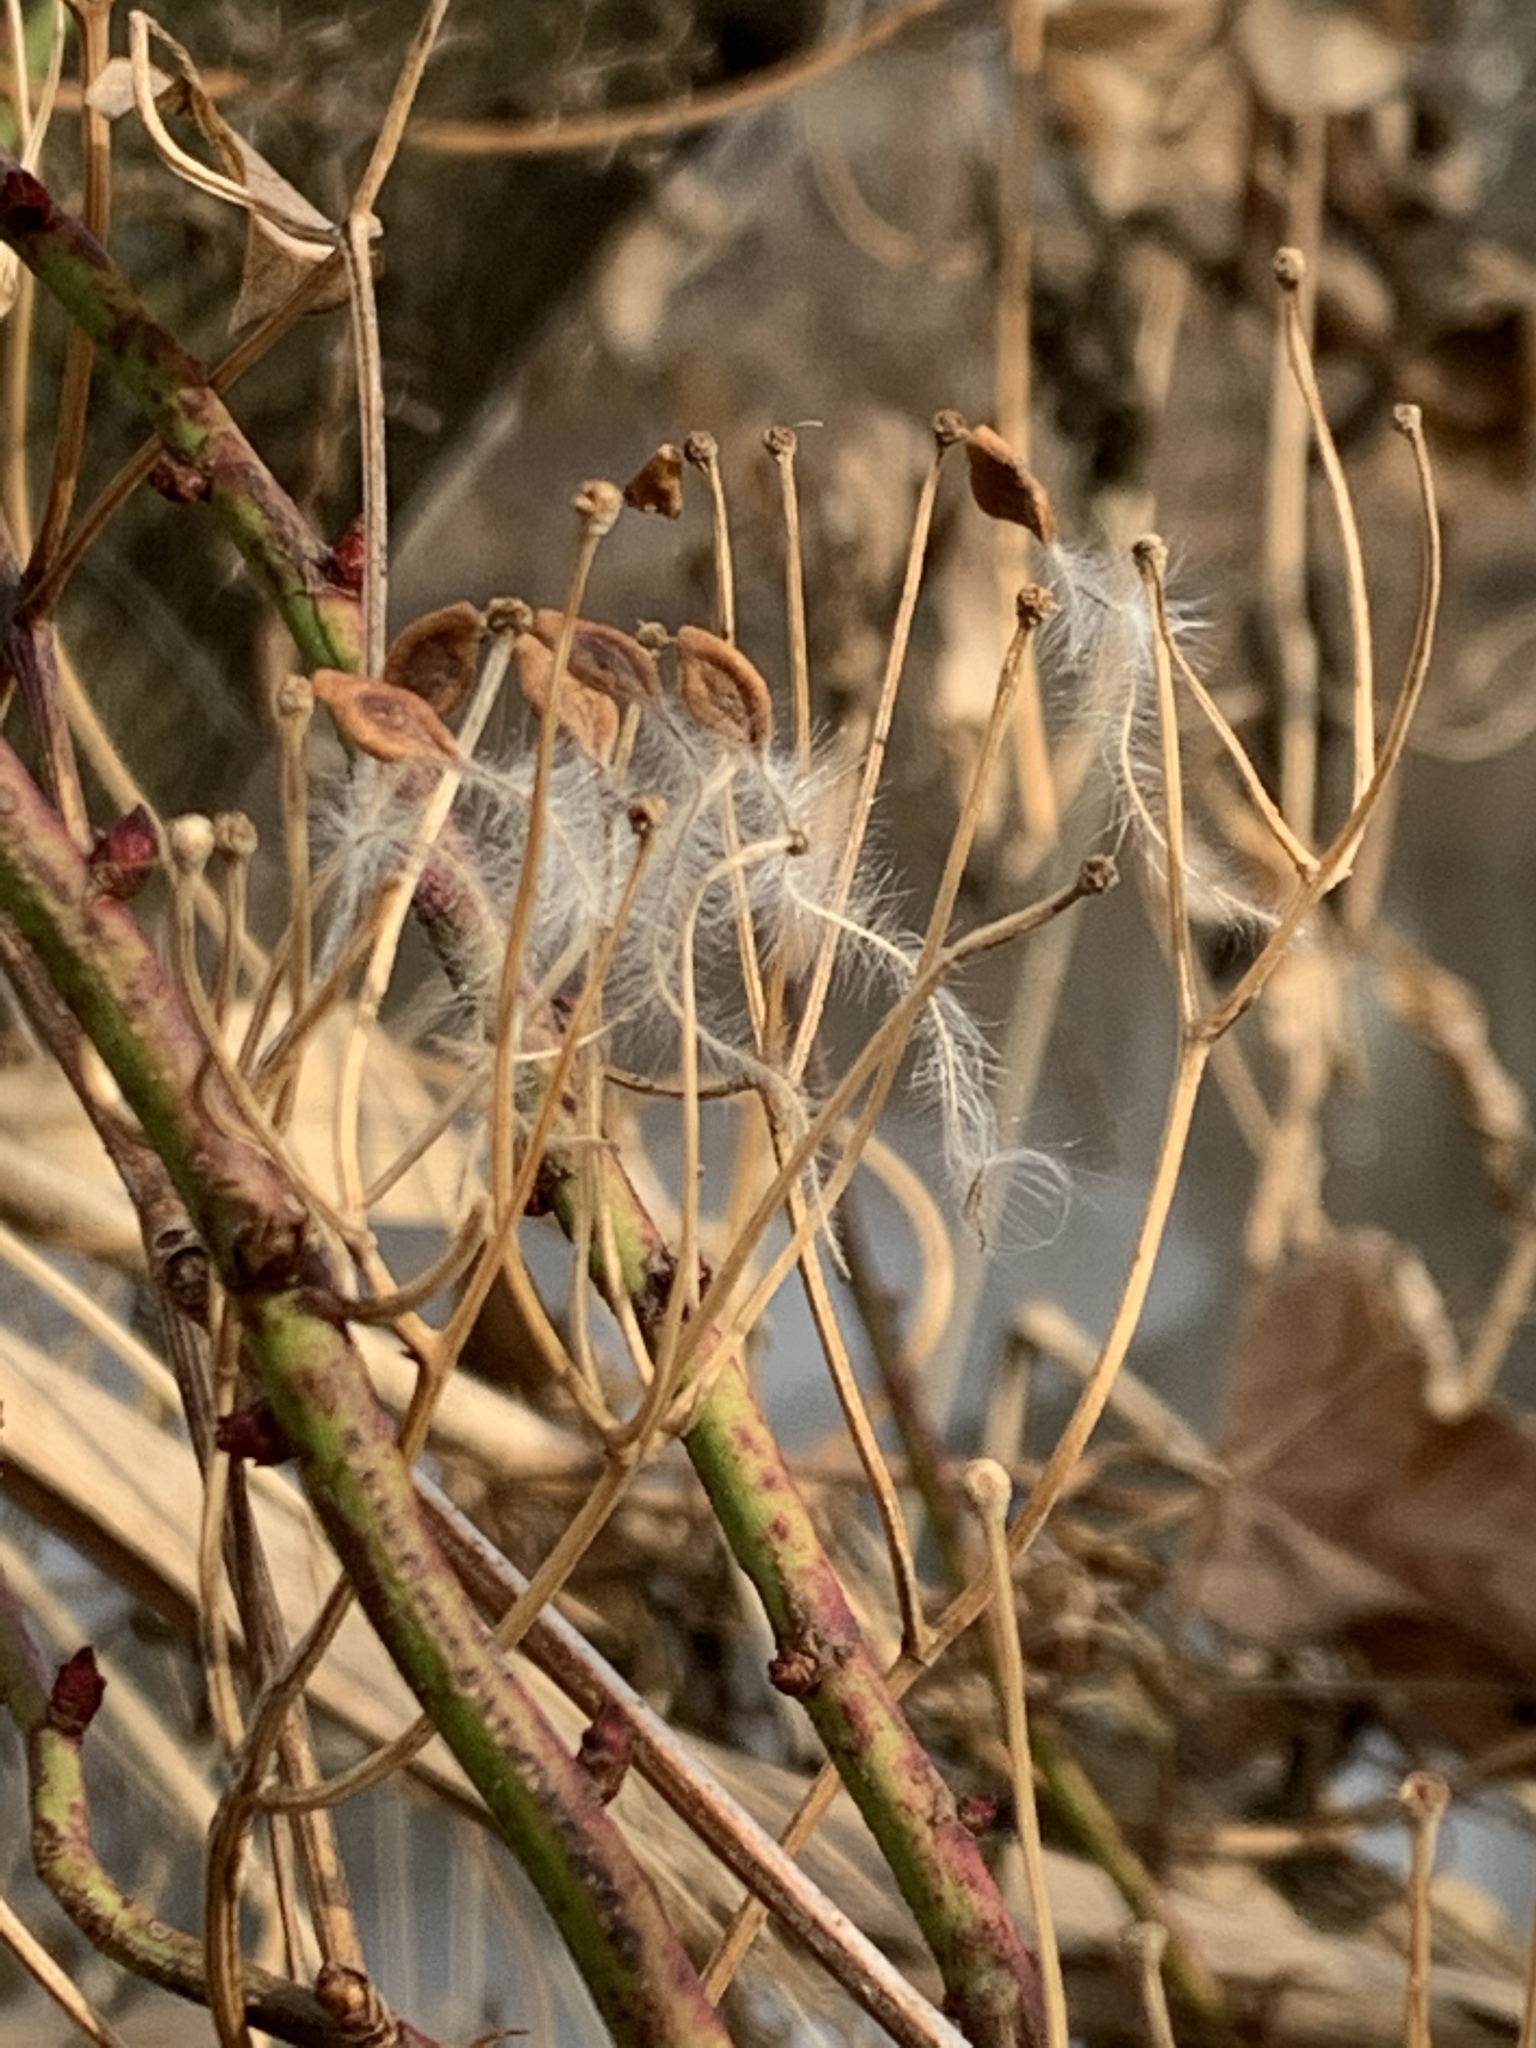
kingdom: Plantae
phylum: Tracheophyta
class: Magnoliopsida
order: Ranunculales
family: Ranunculaceae
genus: Clematis
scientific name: Clematis terniflora
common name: Sweet autumn clematis
